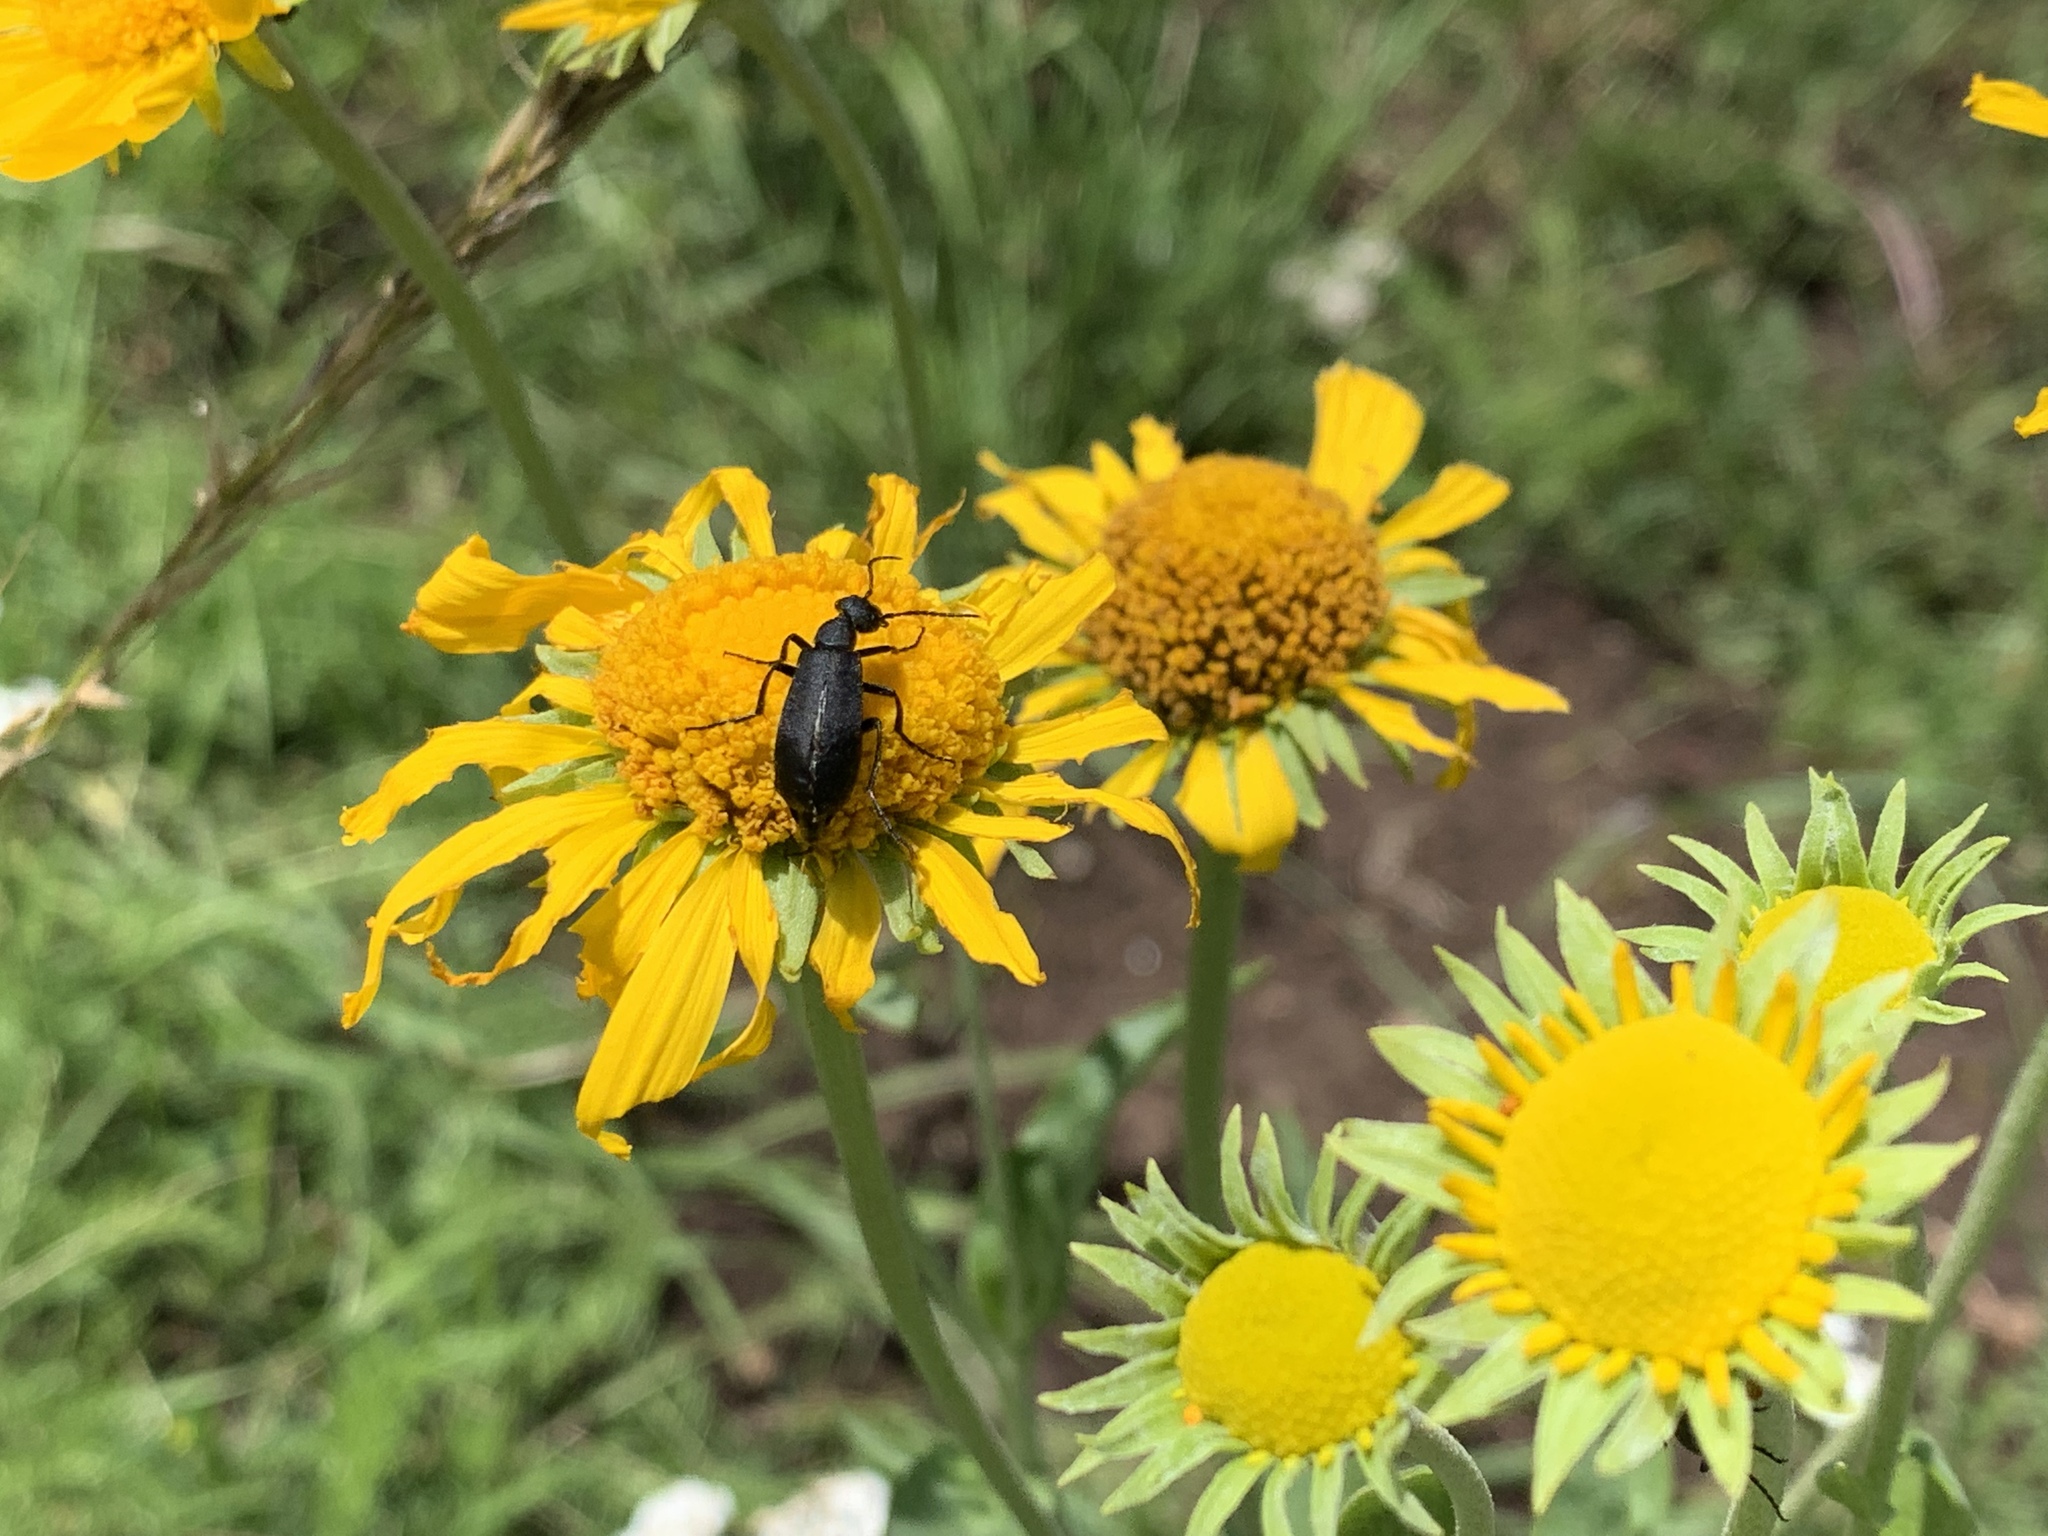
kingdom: Animalia
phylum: Arthropoda
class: Insecta
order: Coleoptera
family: Meloidae
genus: Epicauta
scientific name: Epicauta pensylvanica
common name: Black blister beetle
